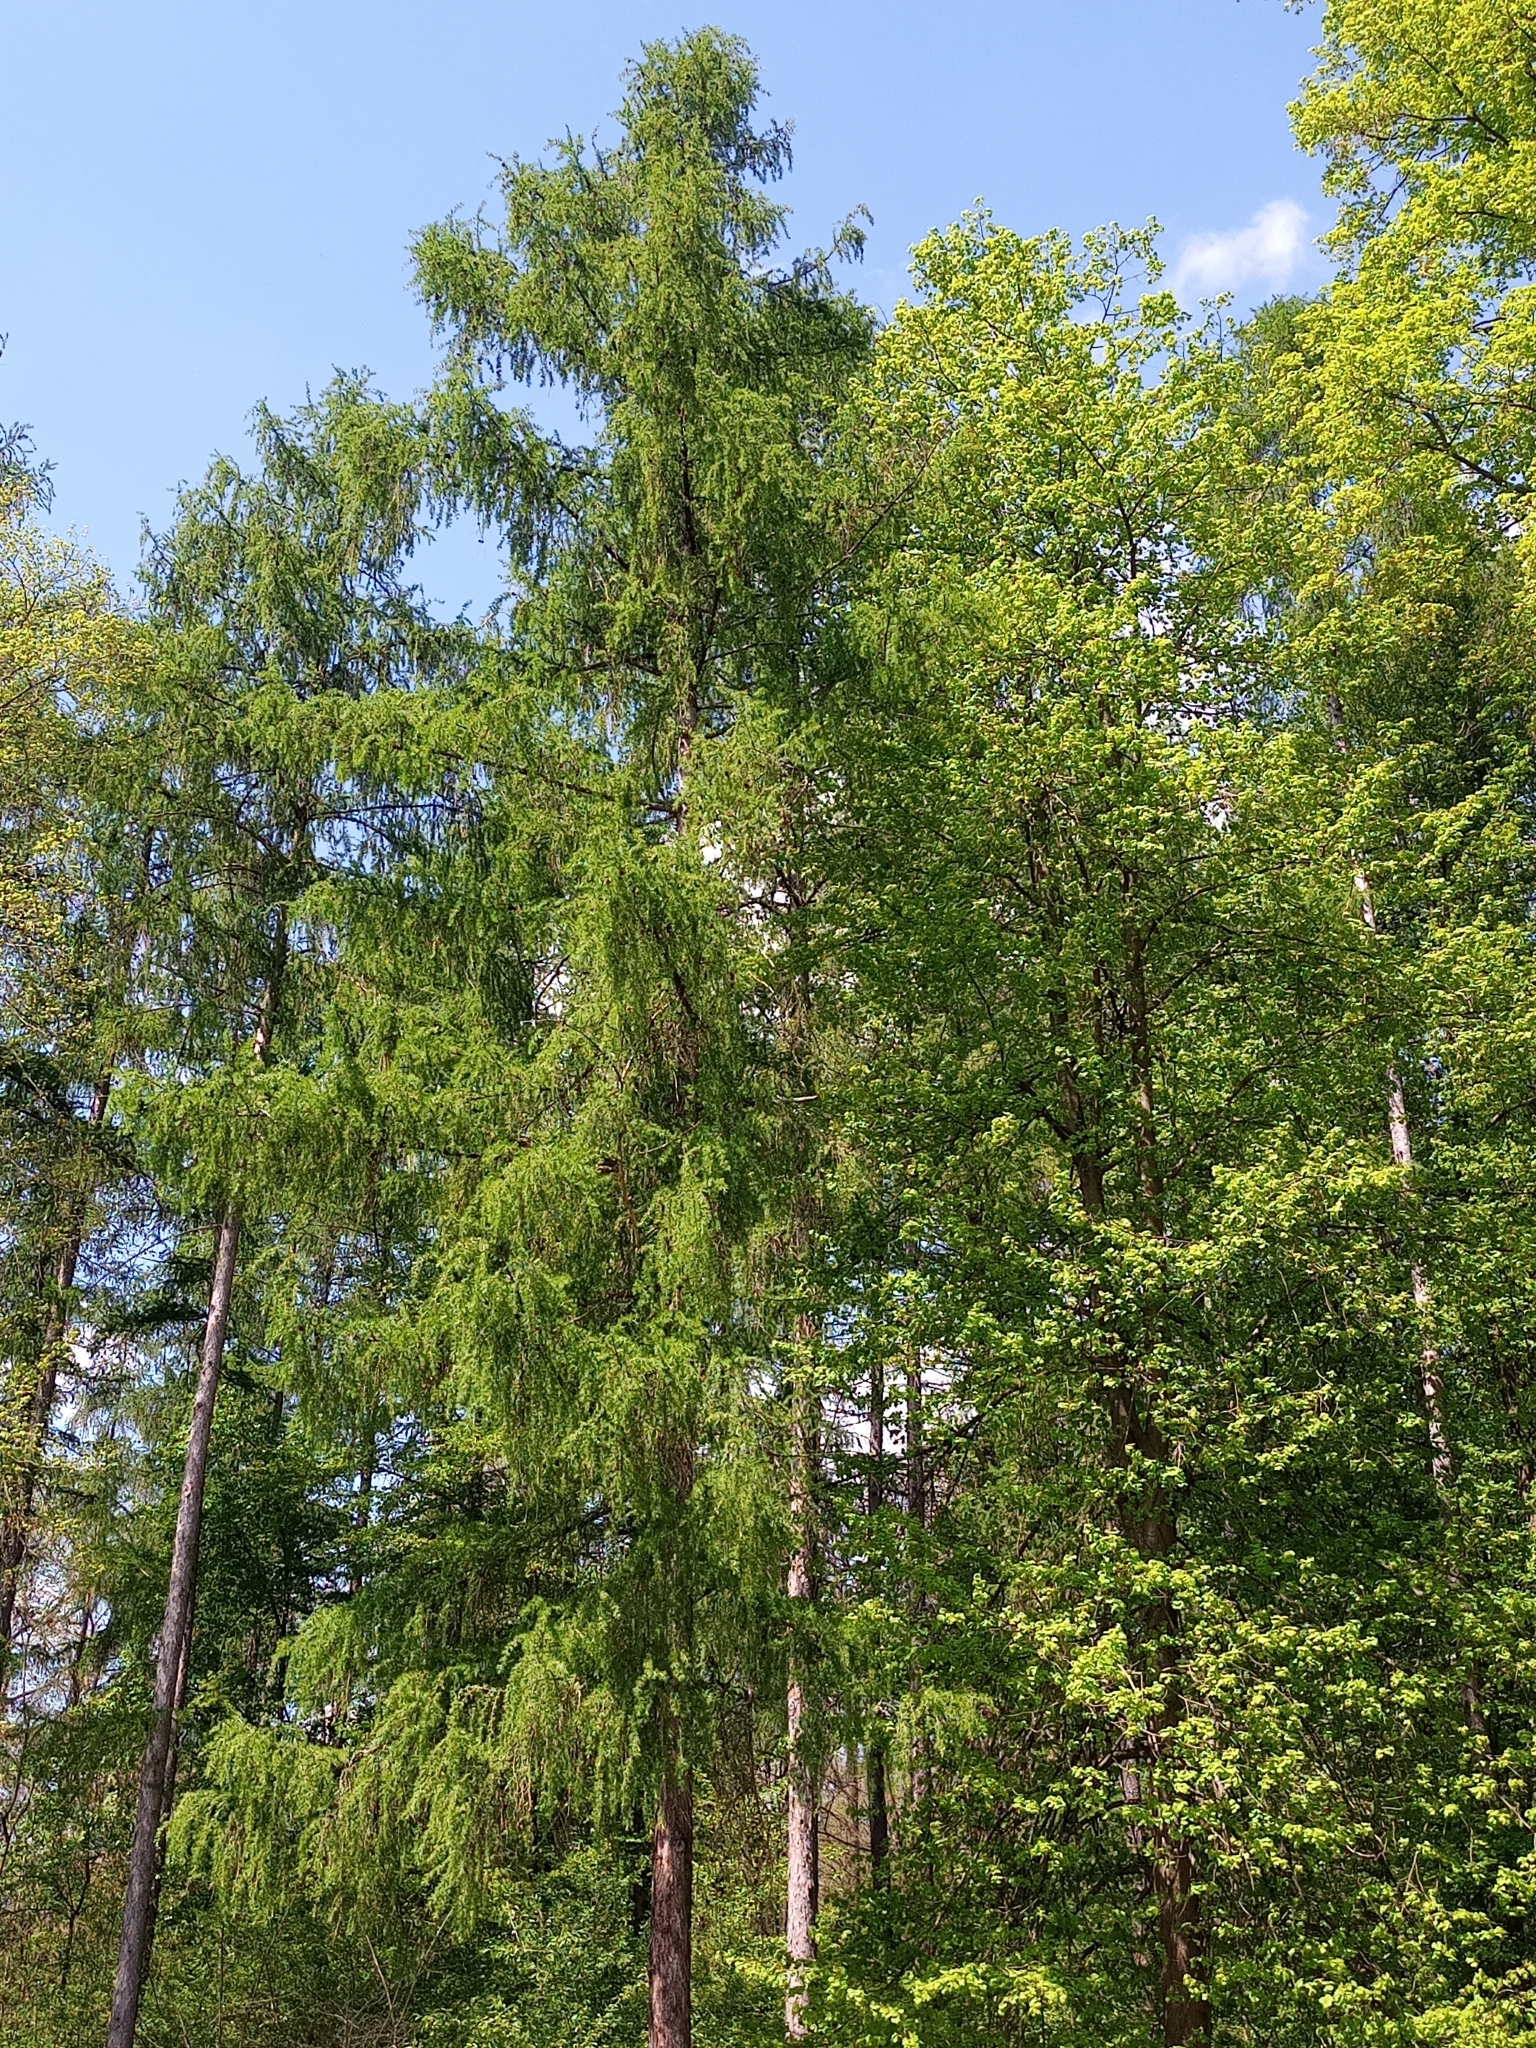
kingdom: Plantae
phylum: Tracheophyta
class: Pinopsida
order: Pinales
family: Pinaceae
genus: Larix
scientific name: Larix decidua
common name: European larch
